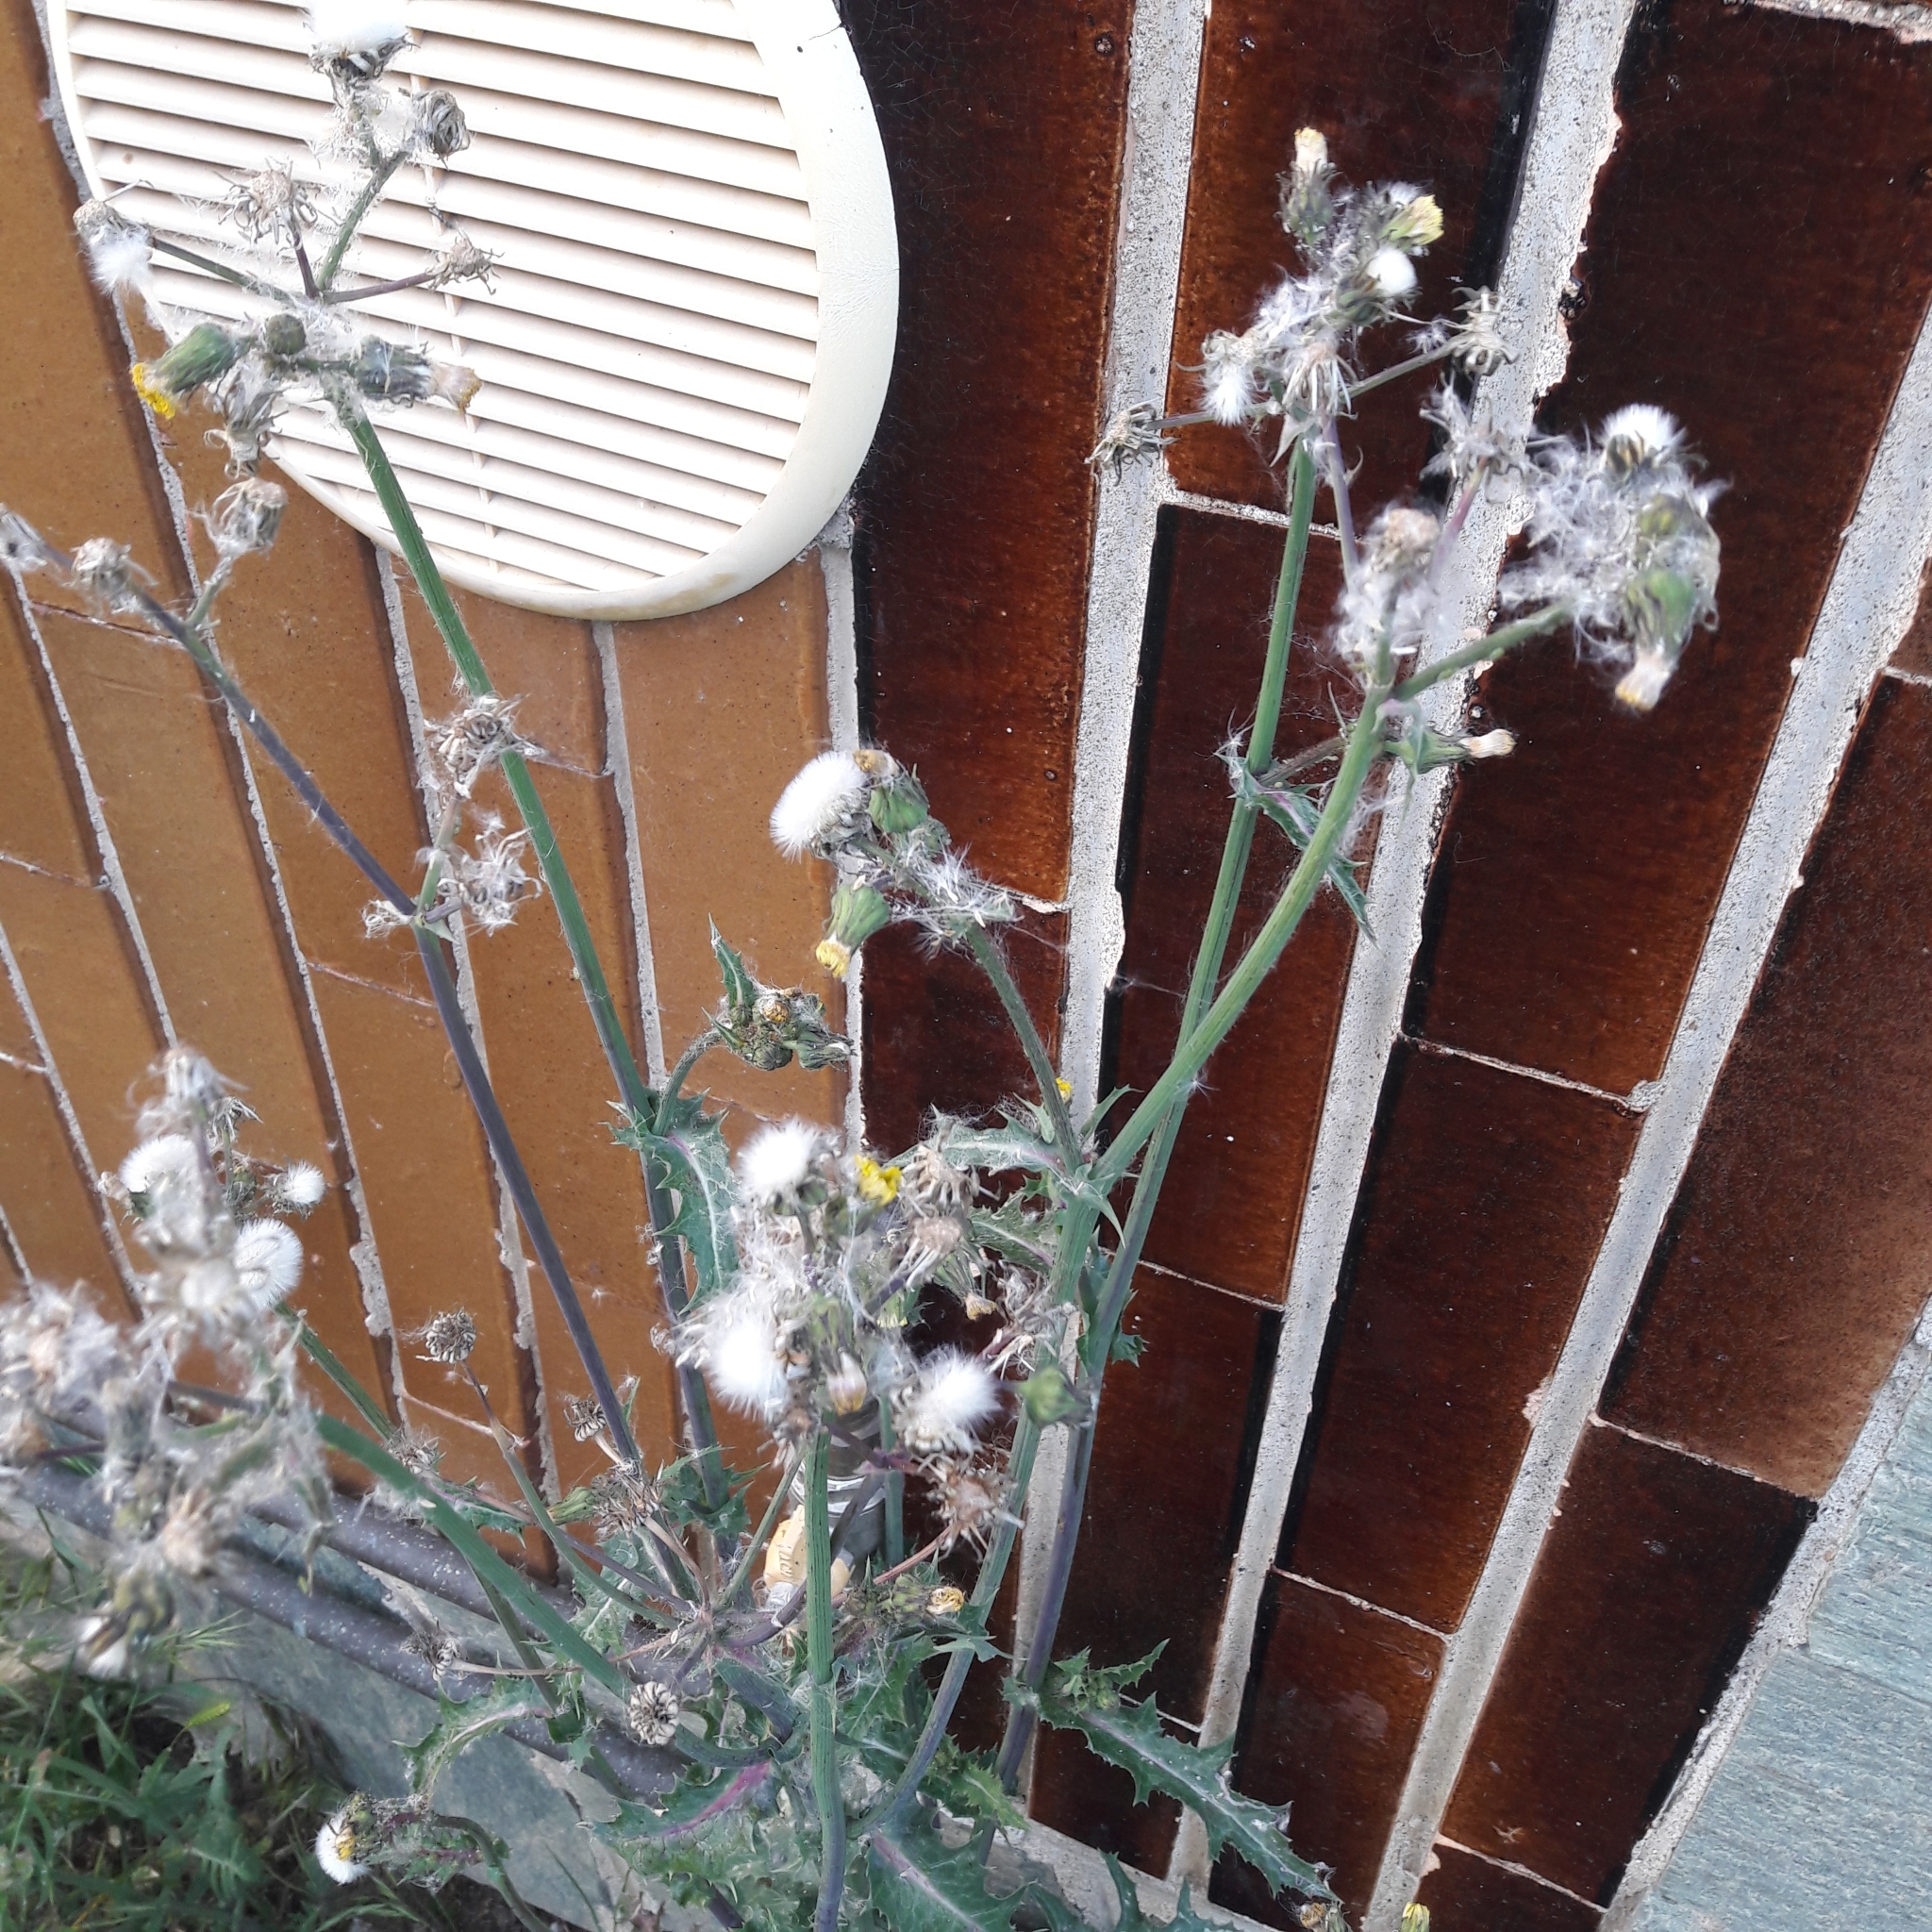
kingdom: Plantae
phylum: Tracheophyta
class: Magnoliopsida
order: Asterales
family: Asteraceae
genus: Sonchus
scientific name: Sonchus asper
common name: Prickly sow-thistle
